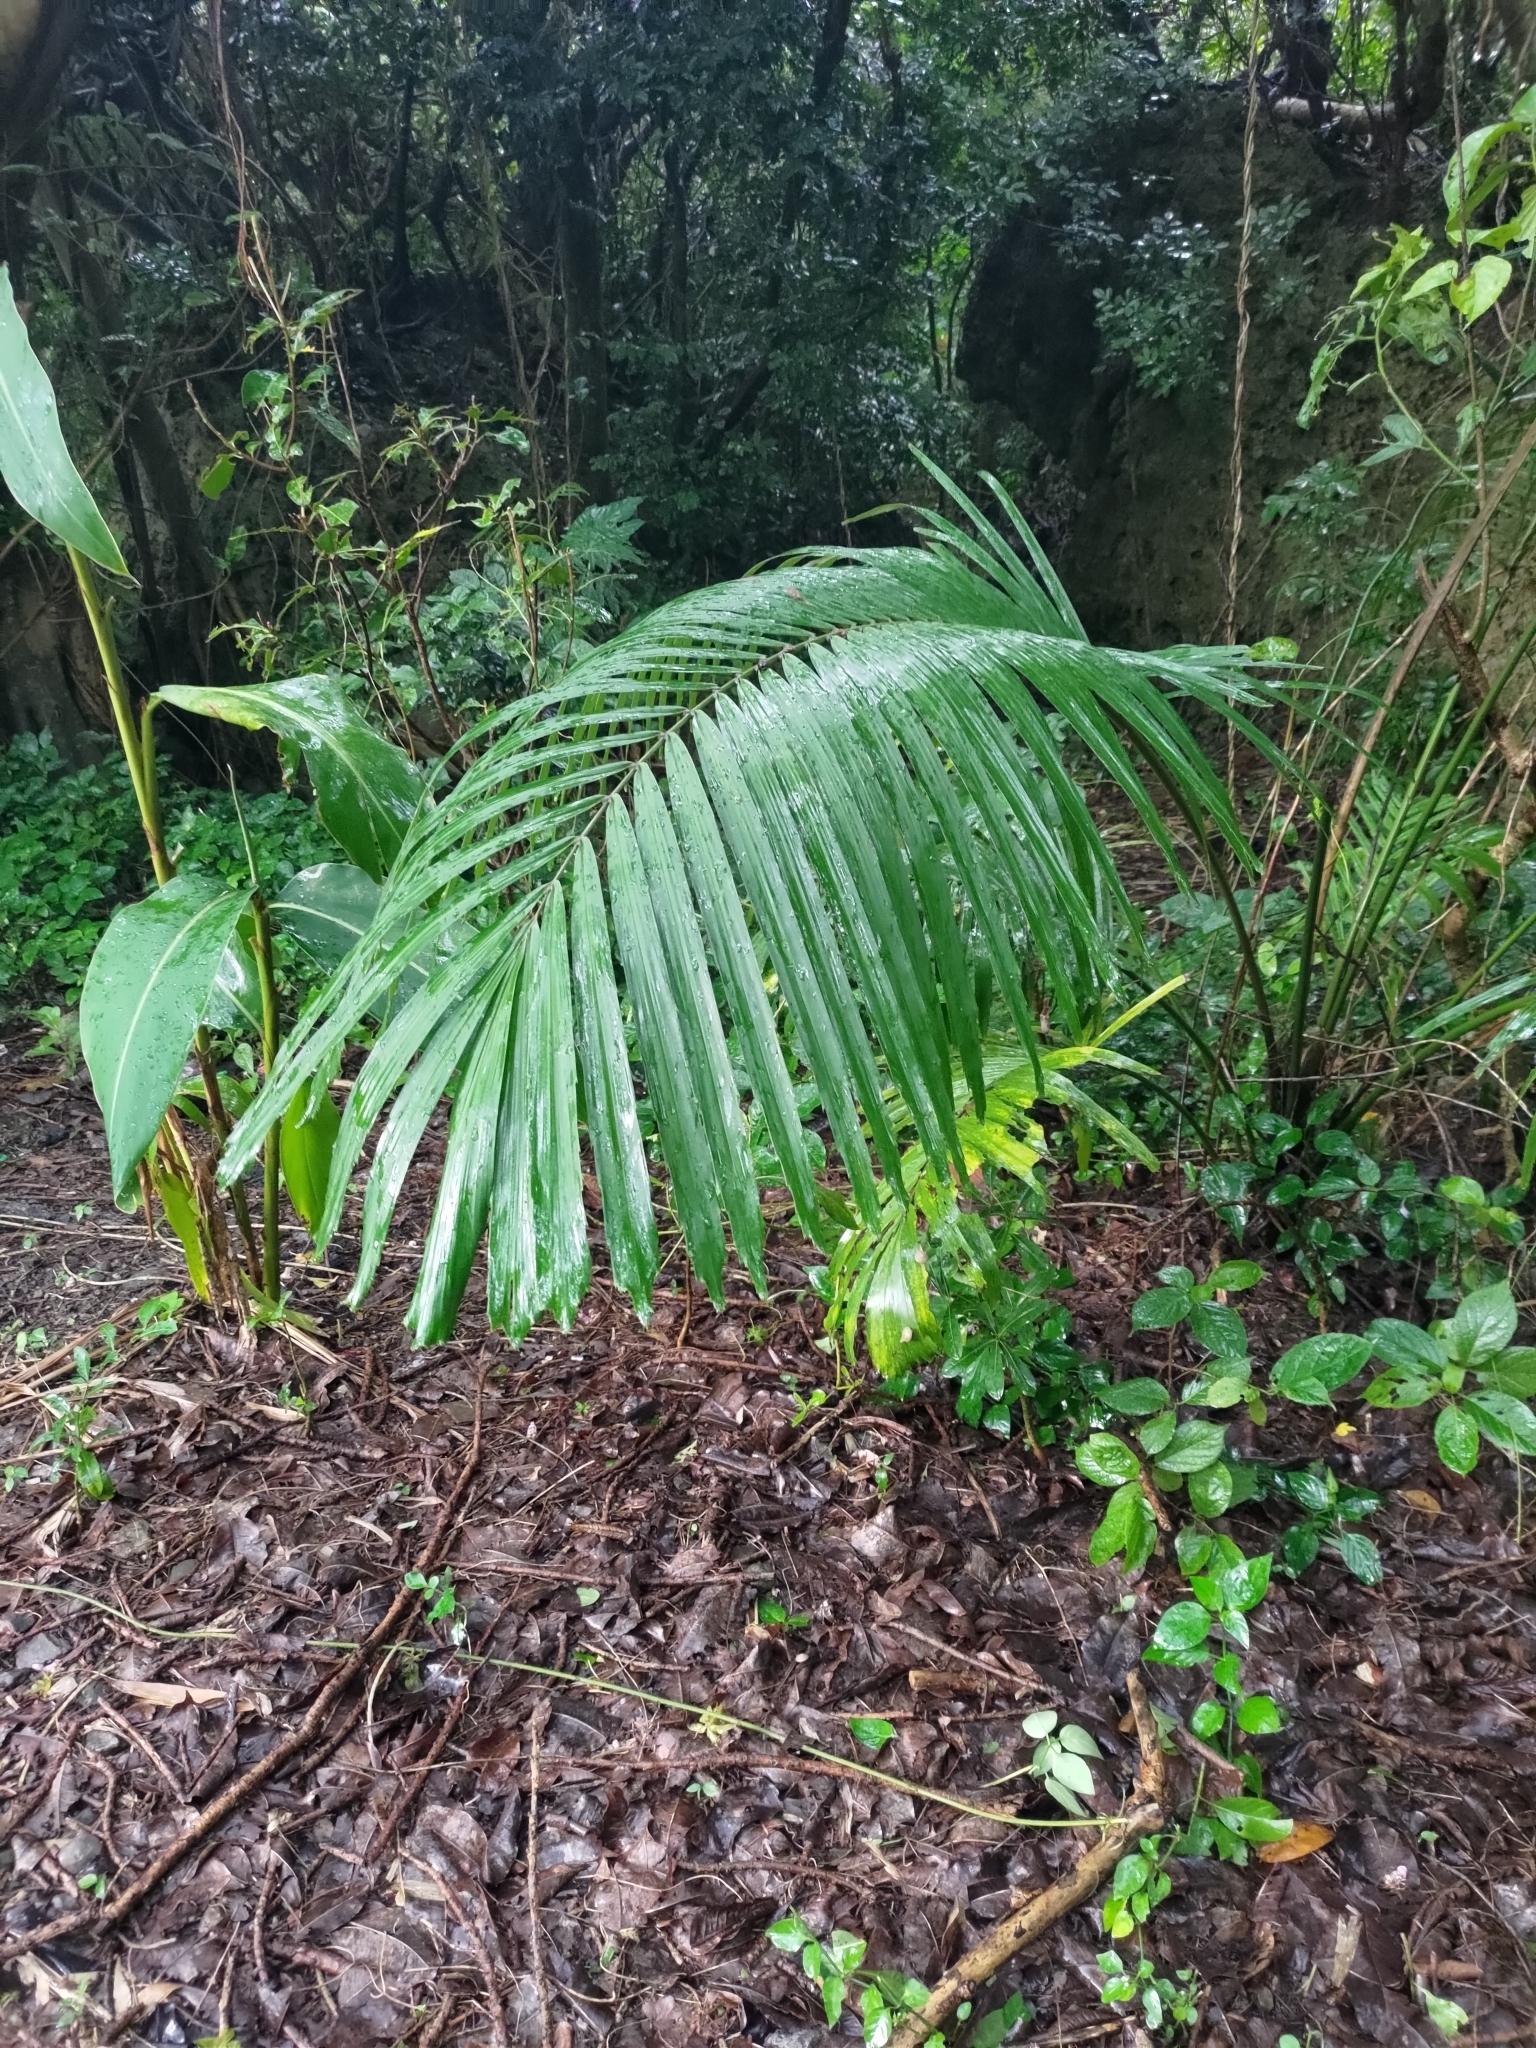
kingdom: Plantae
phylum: Tracheophyta
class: Liliopsida
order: Arecales
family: Arecaceae
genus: Arenga
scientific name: Arenga engleri
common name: Formosan sugar palm
